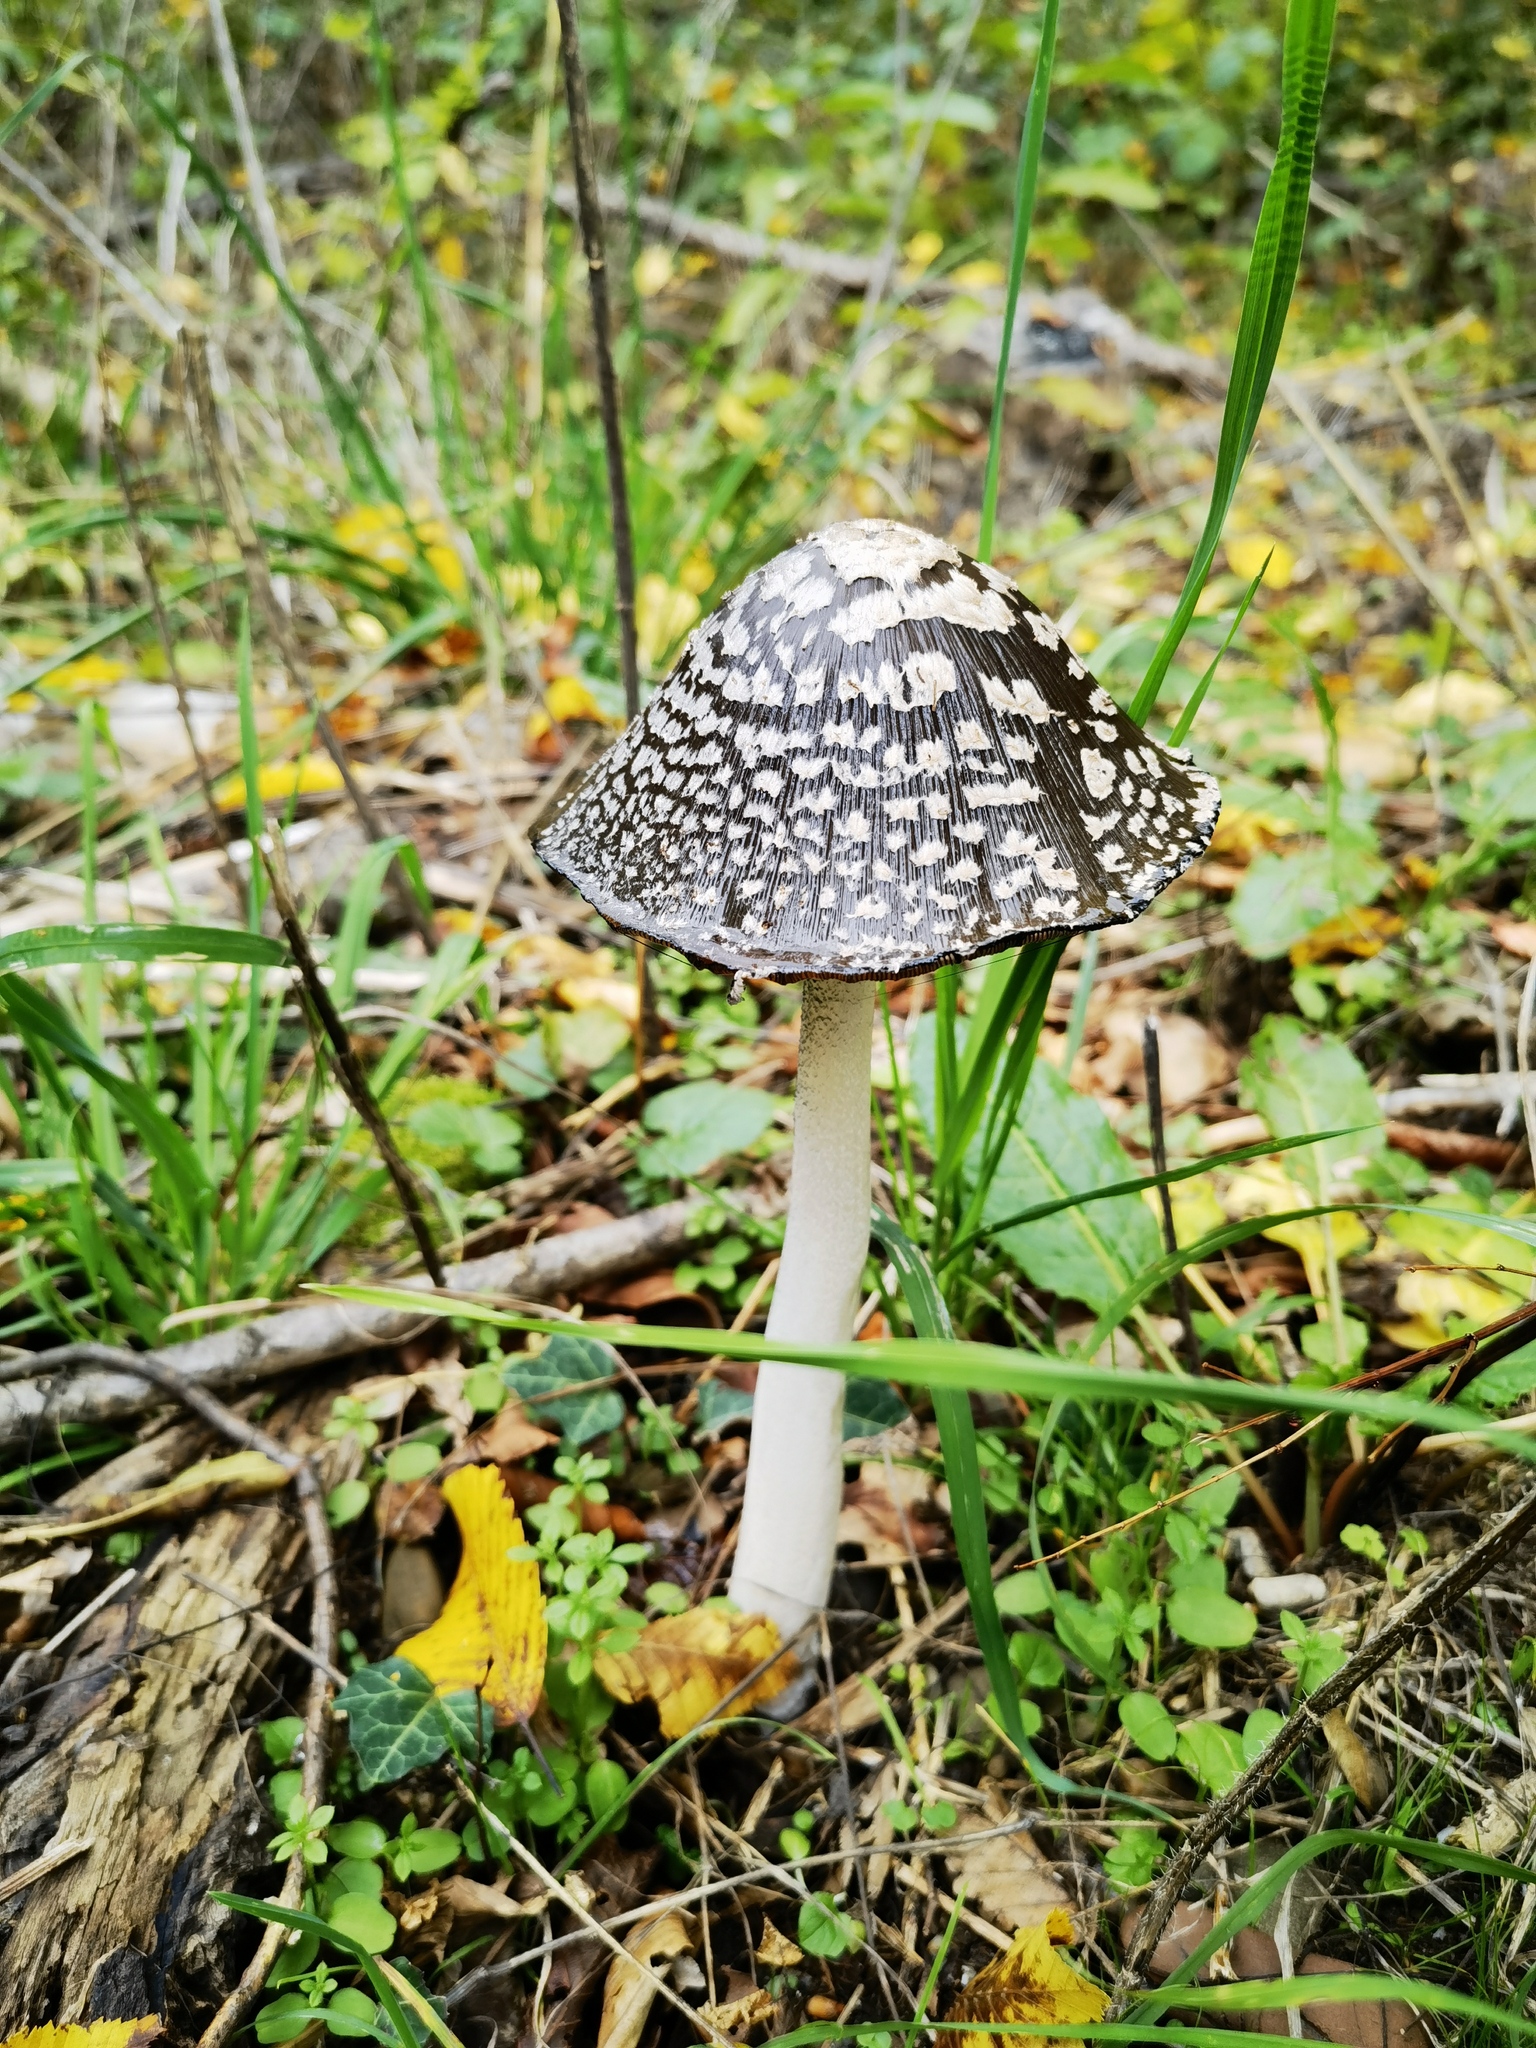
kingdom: Fungi
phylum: Basidiomycota
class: Agaricomycetes
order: Agaricales
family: Psathyrellaceae
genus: Coprinopsis
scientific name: Coprinopsis picacea
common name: Magpie inkcap
